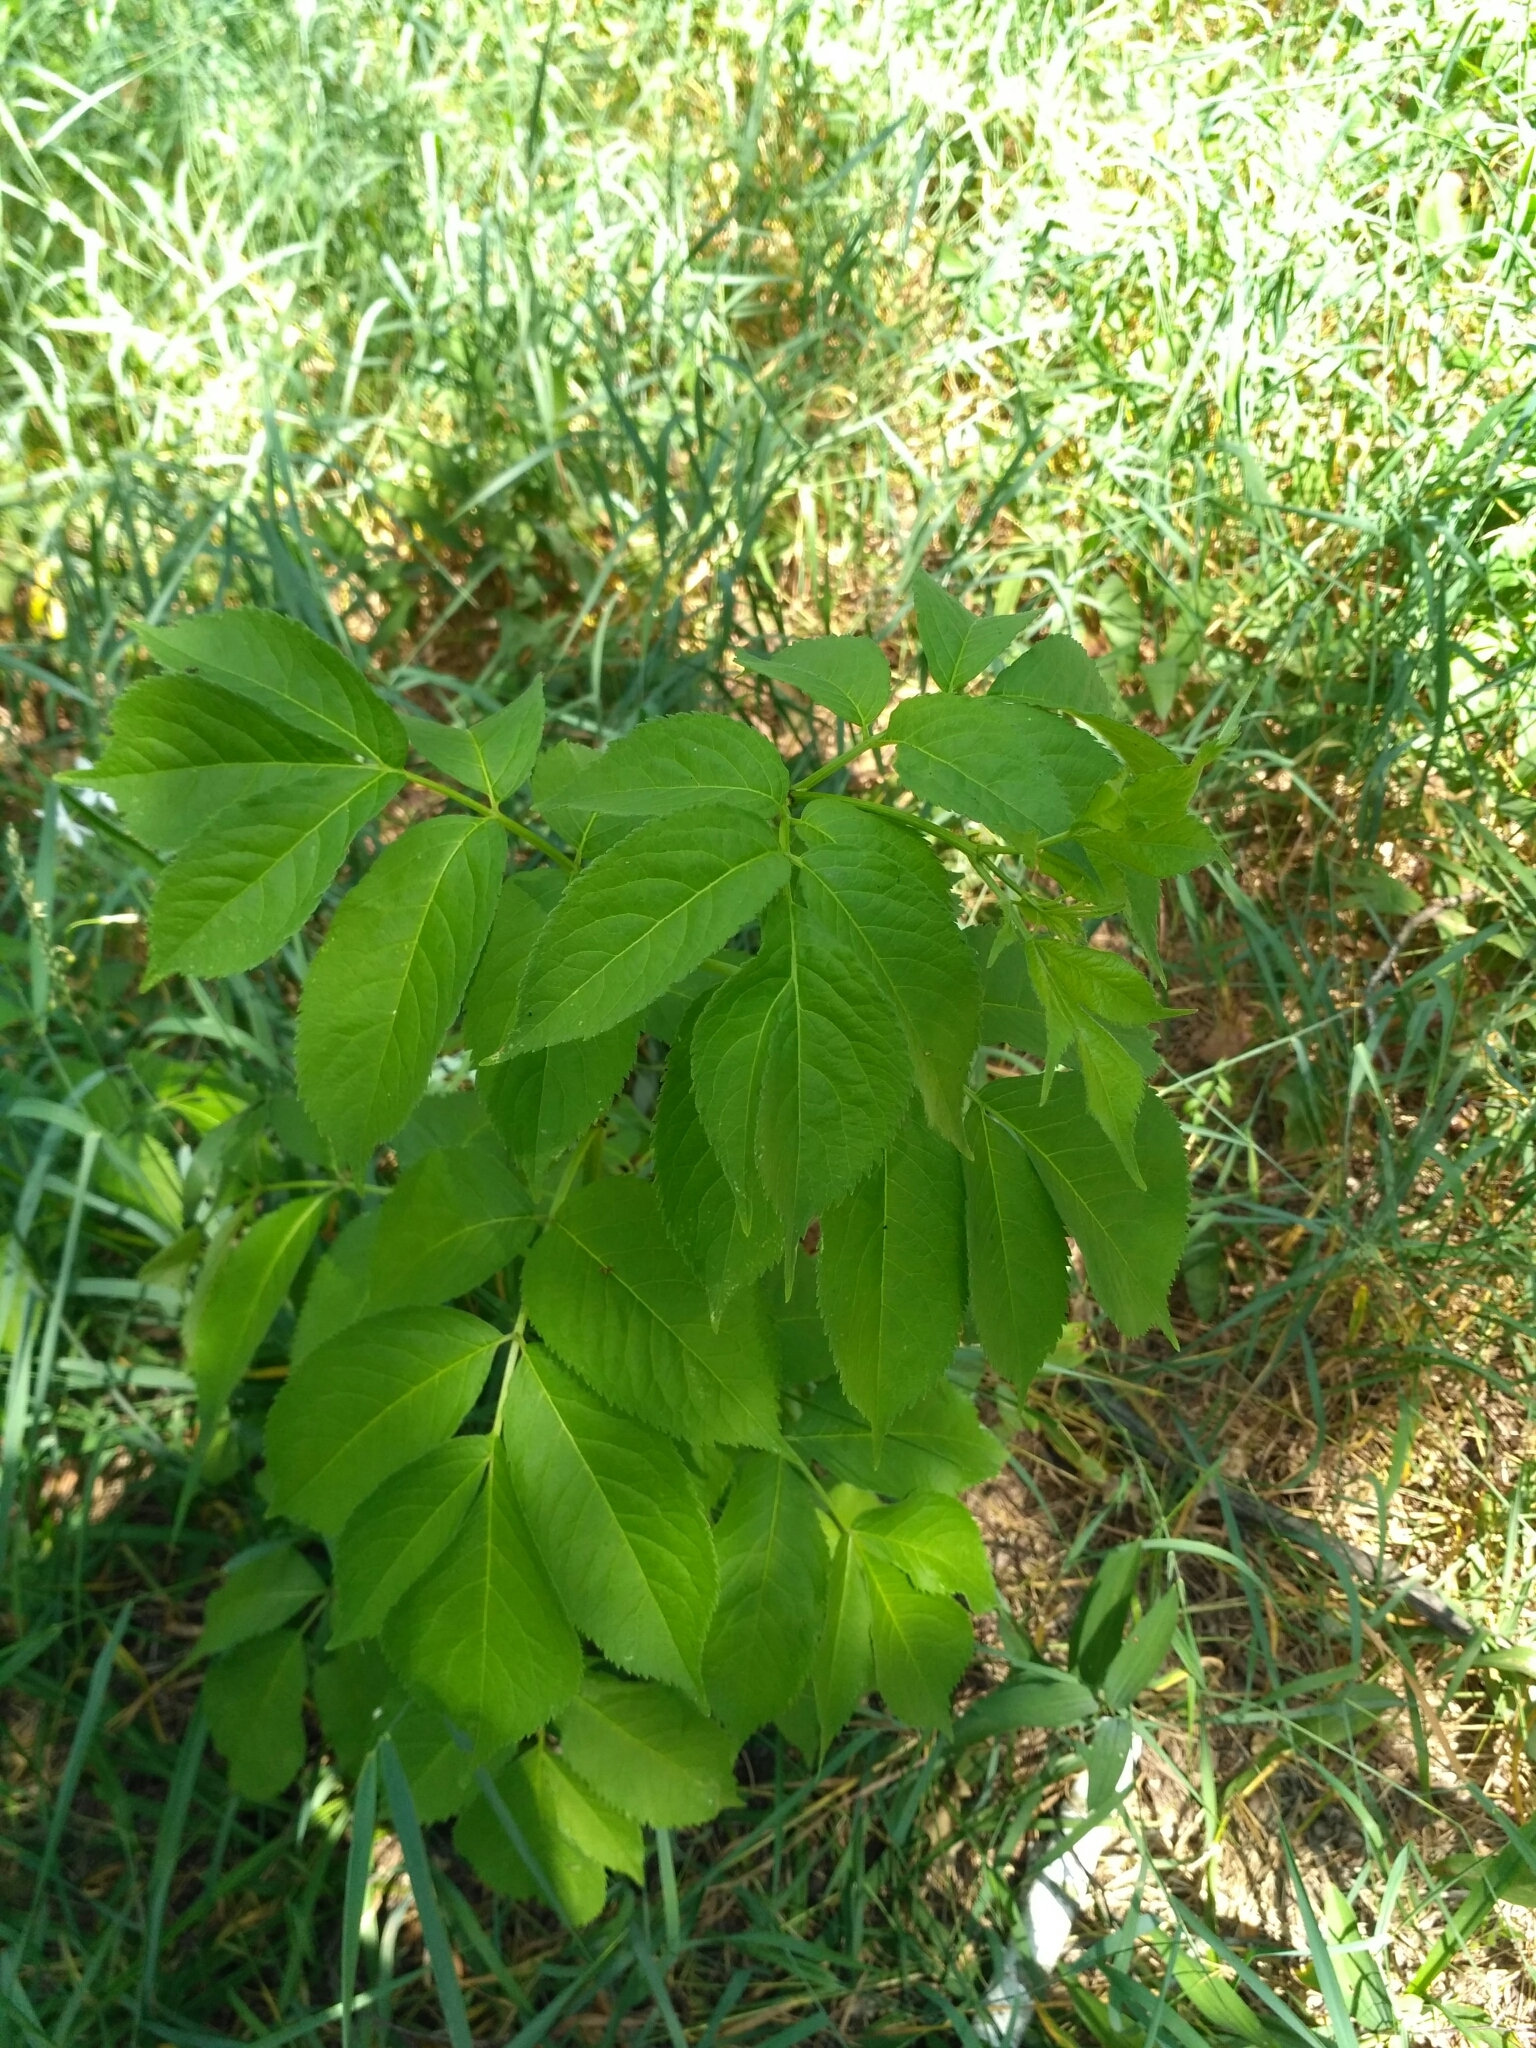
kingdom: Plantae
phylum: Tracheophyta
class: Magnoliopsida
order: Dipsacales
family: Viburnaceae
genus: Sambucus
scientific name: Sambucus nigra
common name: Elder
